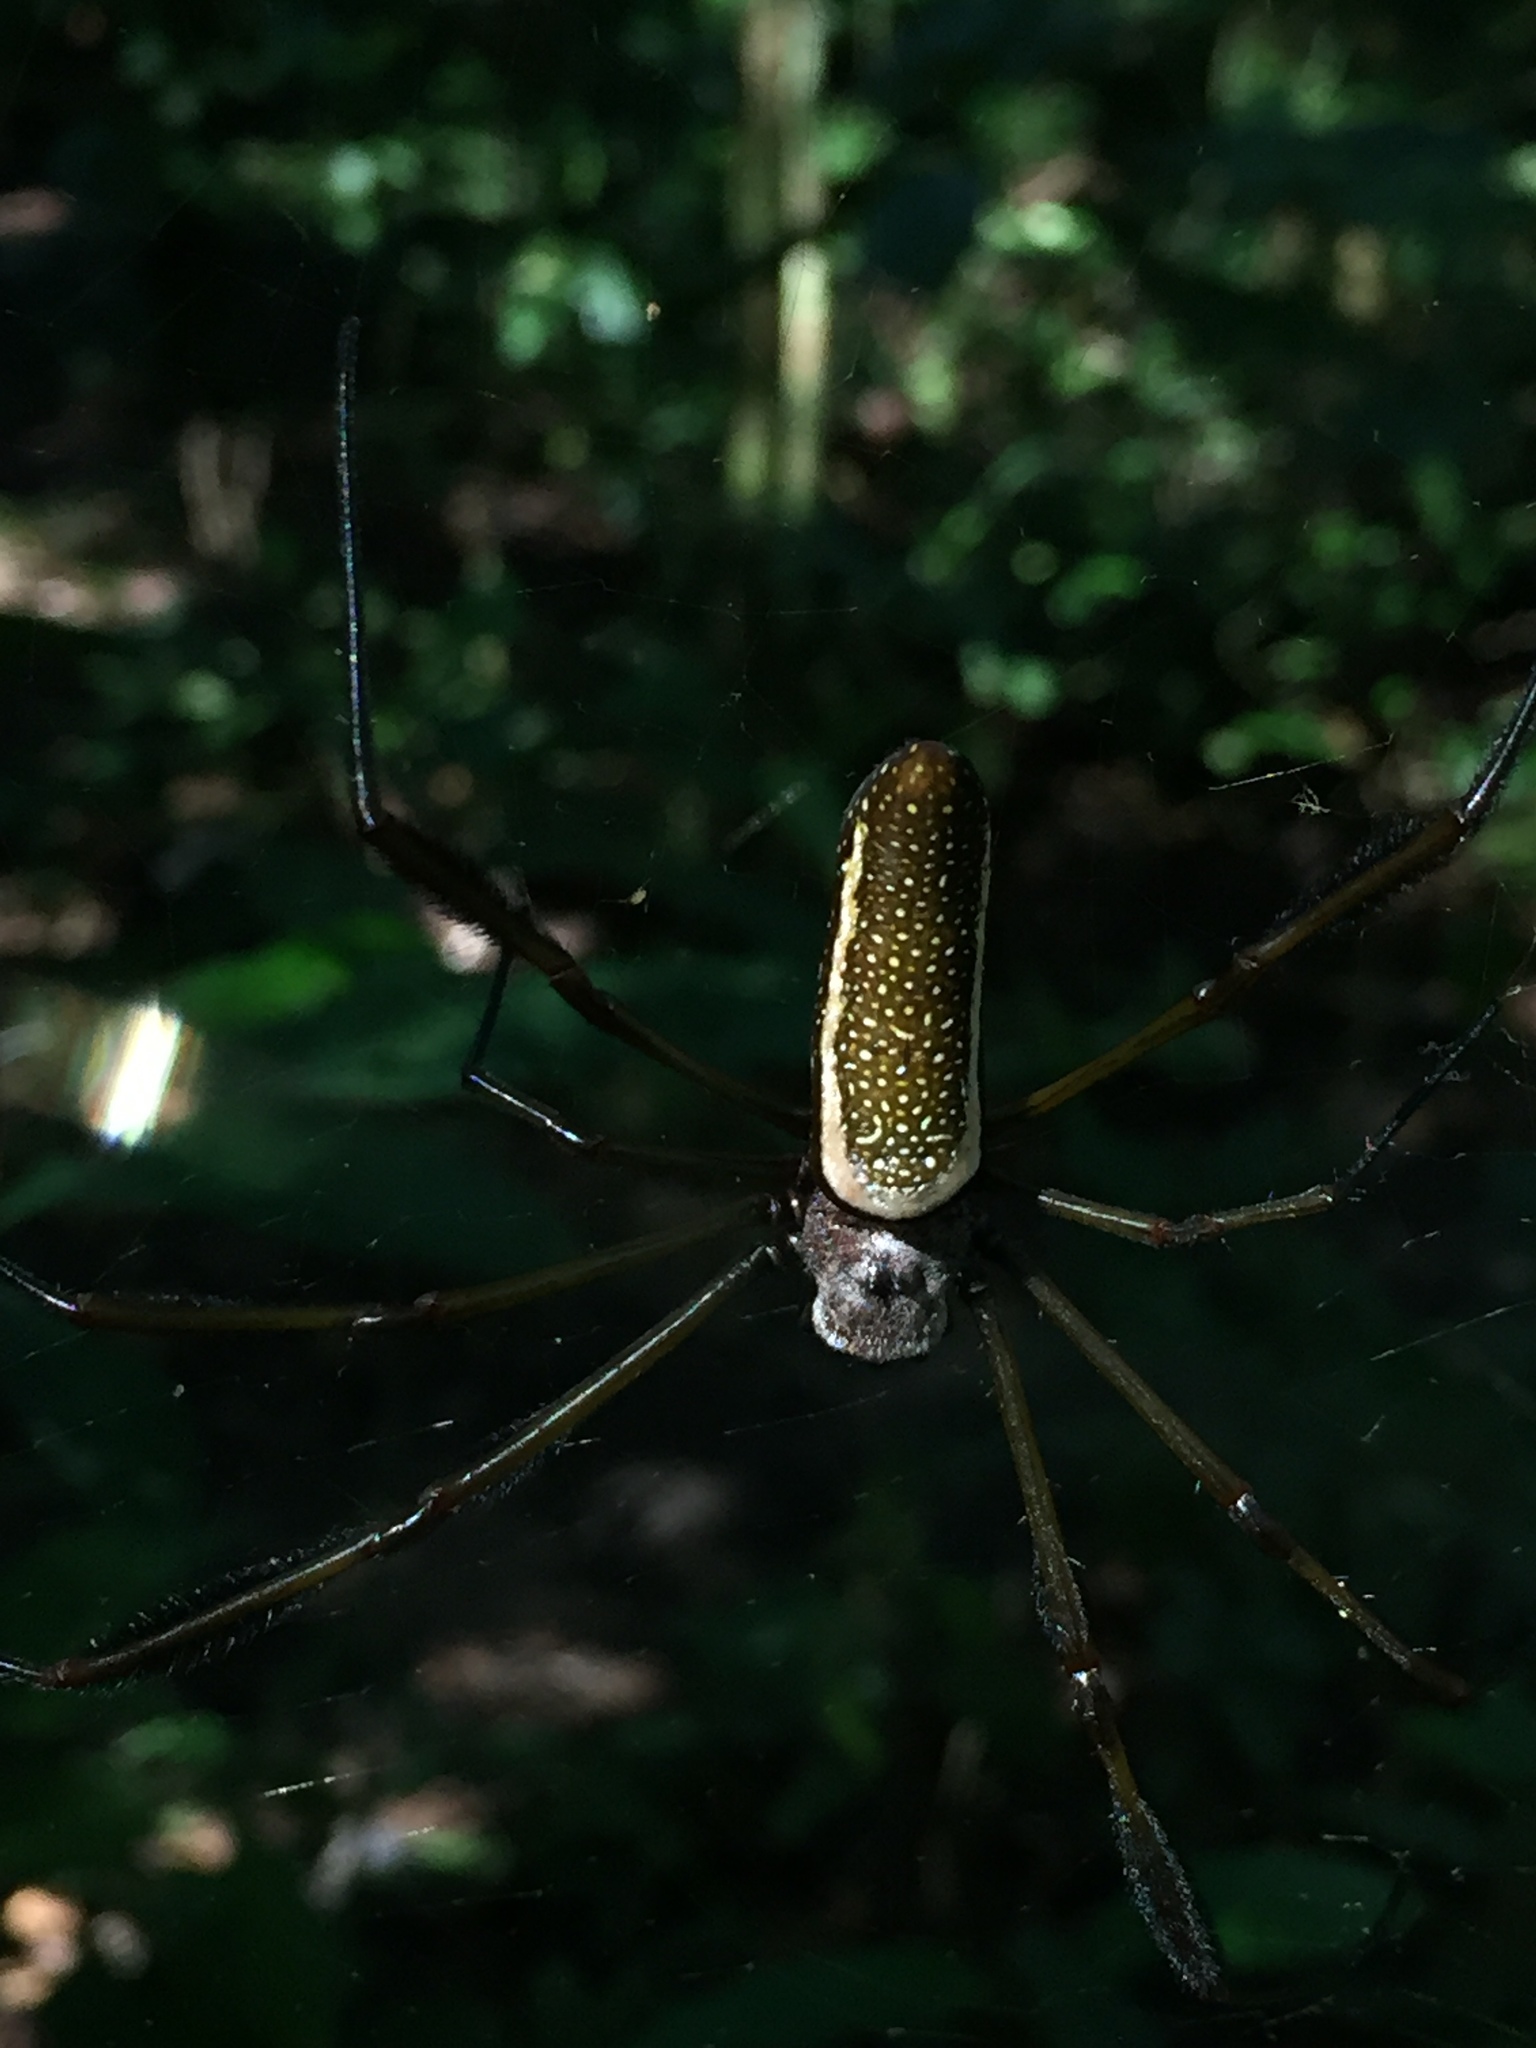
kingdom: Animalia
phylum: Arthropoda
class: Arachnida
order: Araneae
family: Araneidae
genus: Trichonephila
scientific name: Trichonephila clavipes
